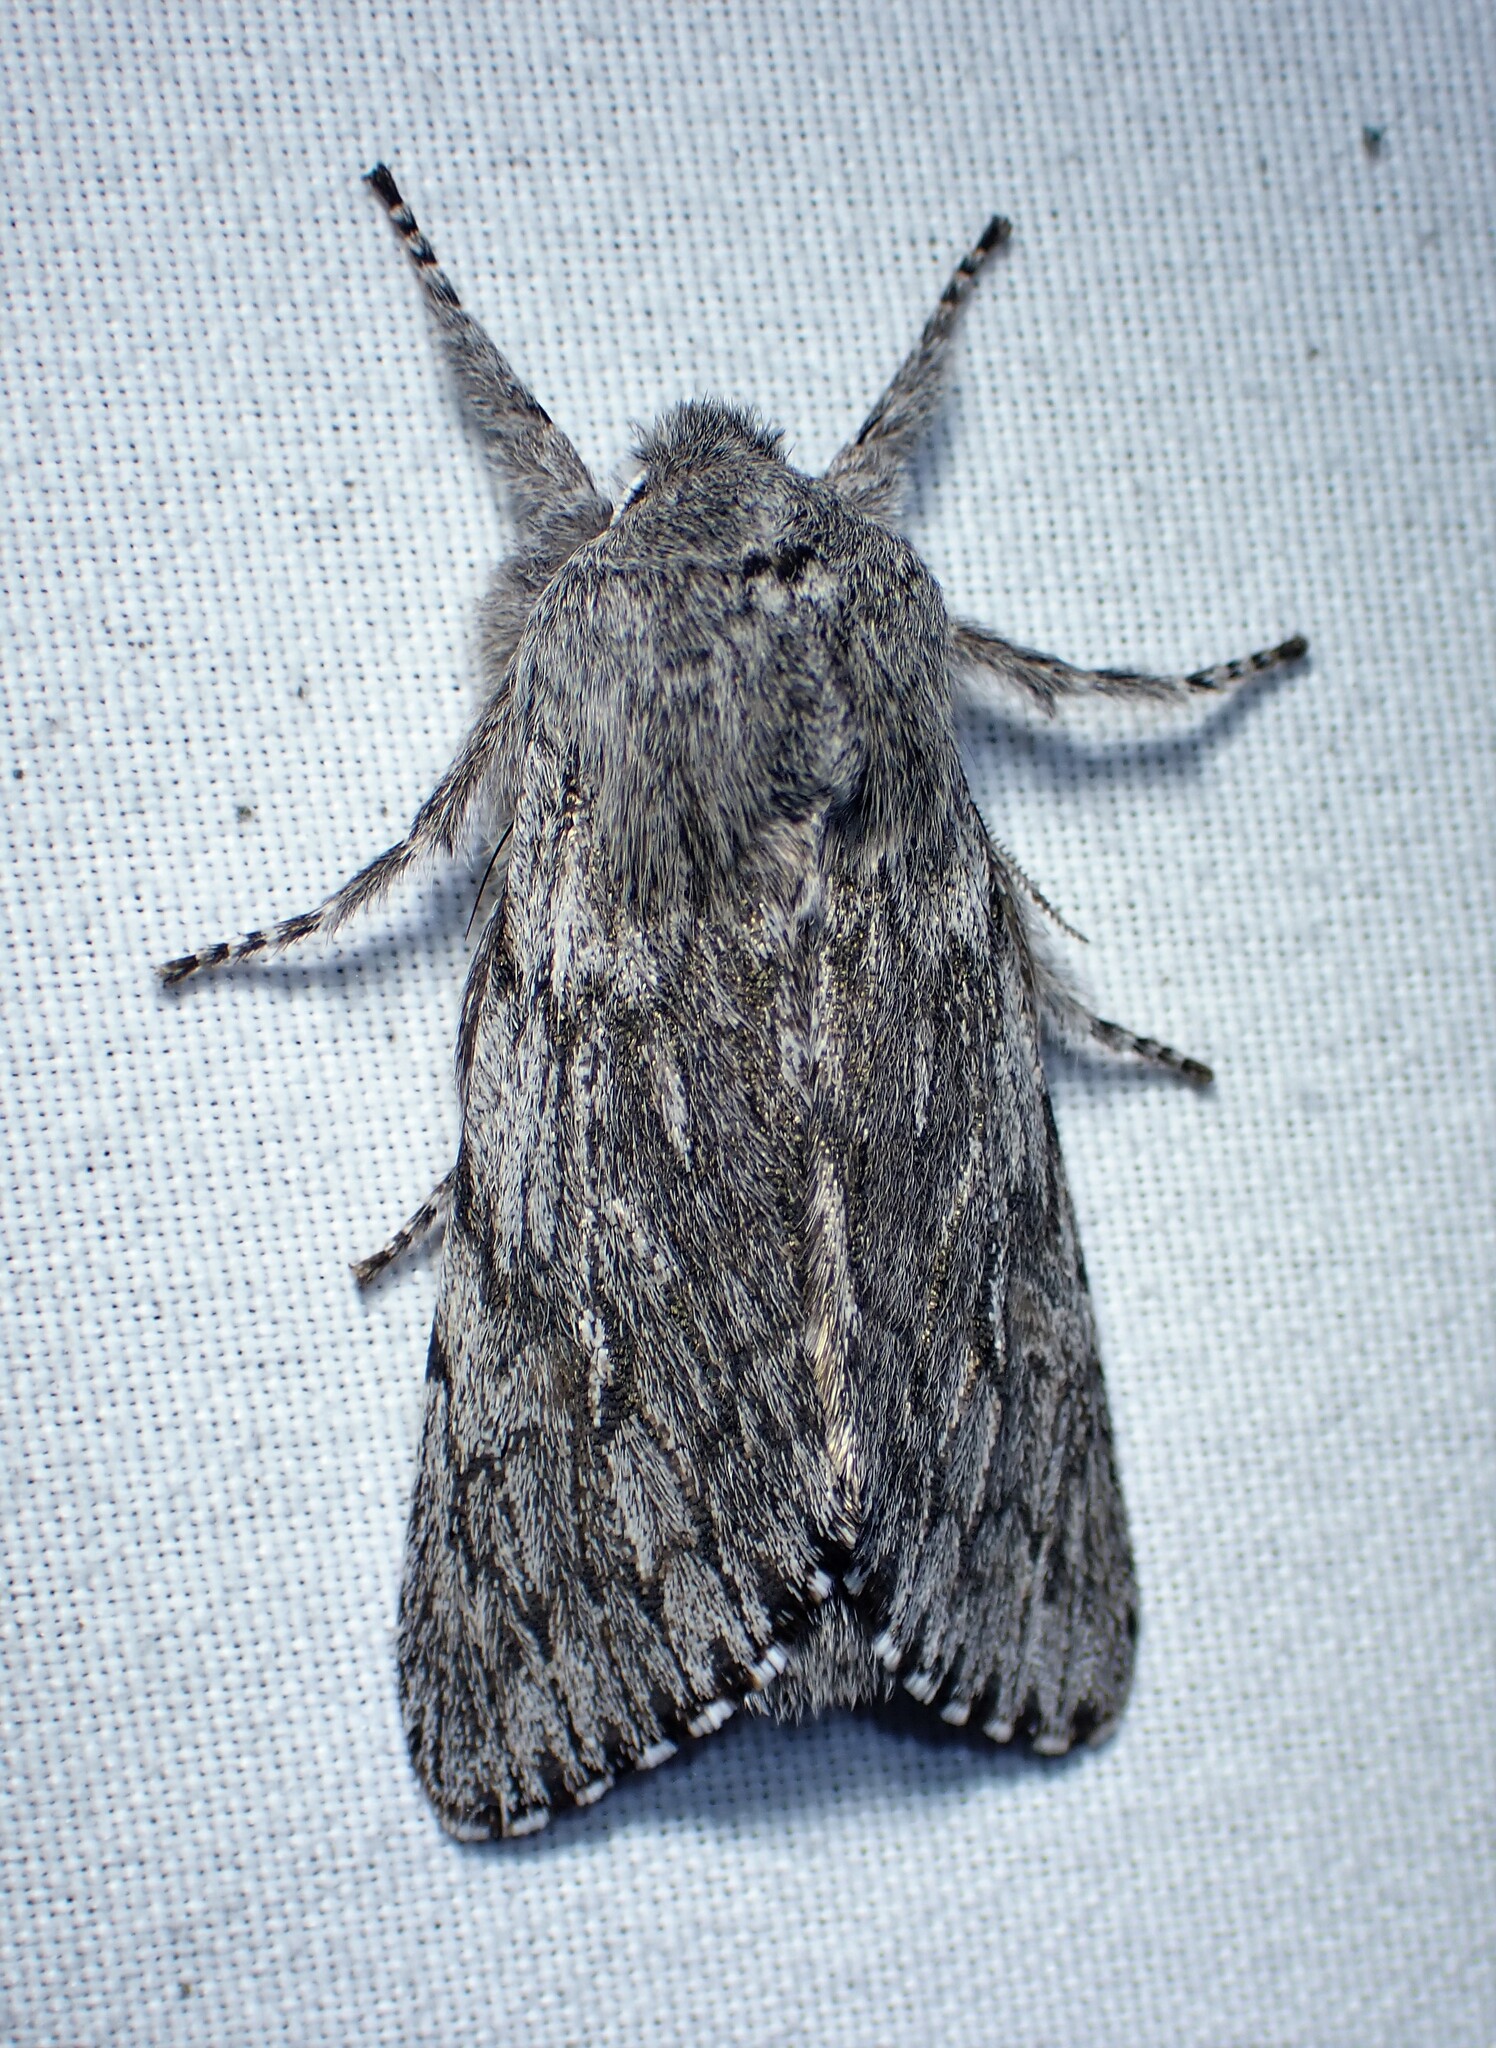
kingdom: Animalia
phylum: Arthropoda
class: Insecta
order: Lepidoptera
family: Noctuidae
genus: Brachionycha
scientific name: Brachionycha borealis
